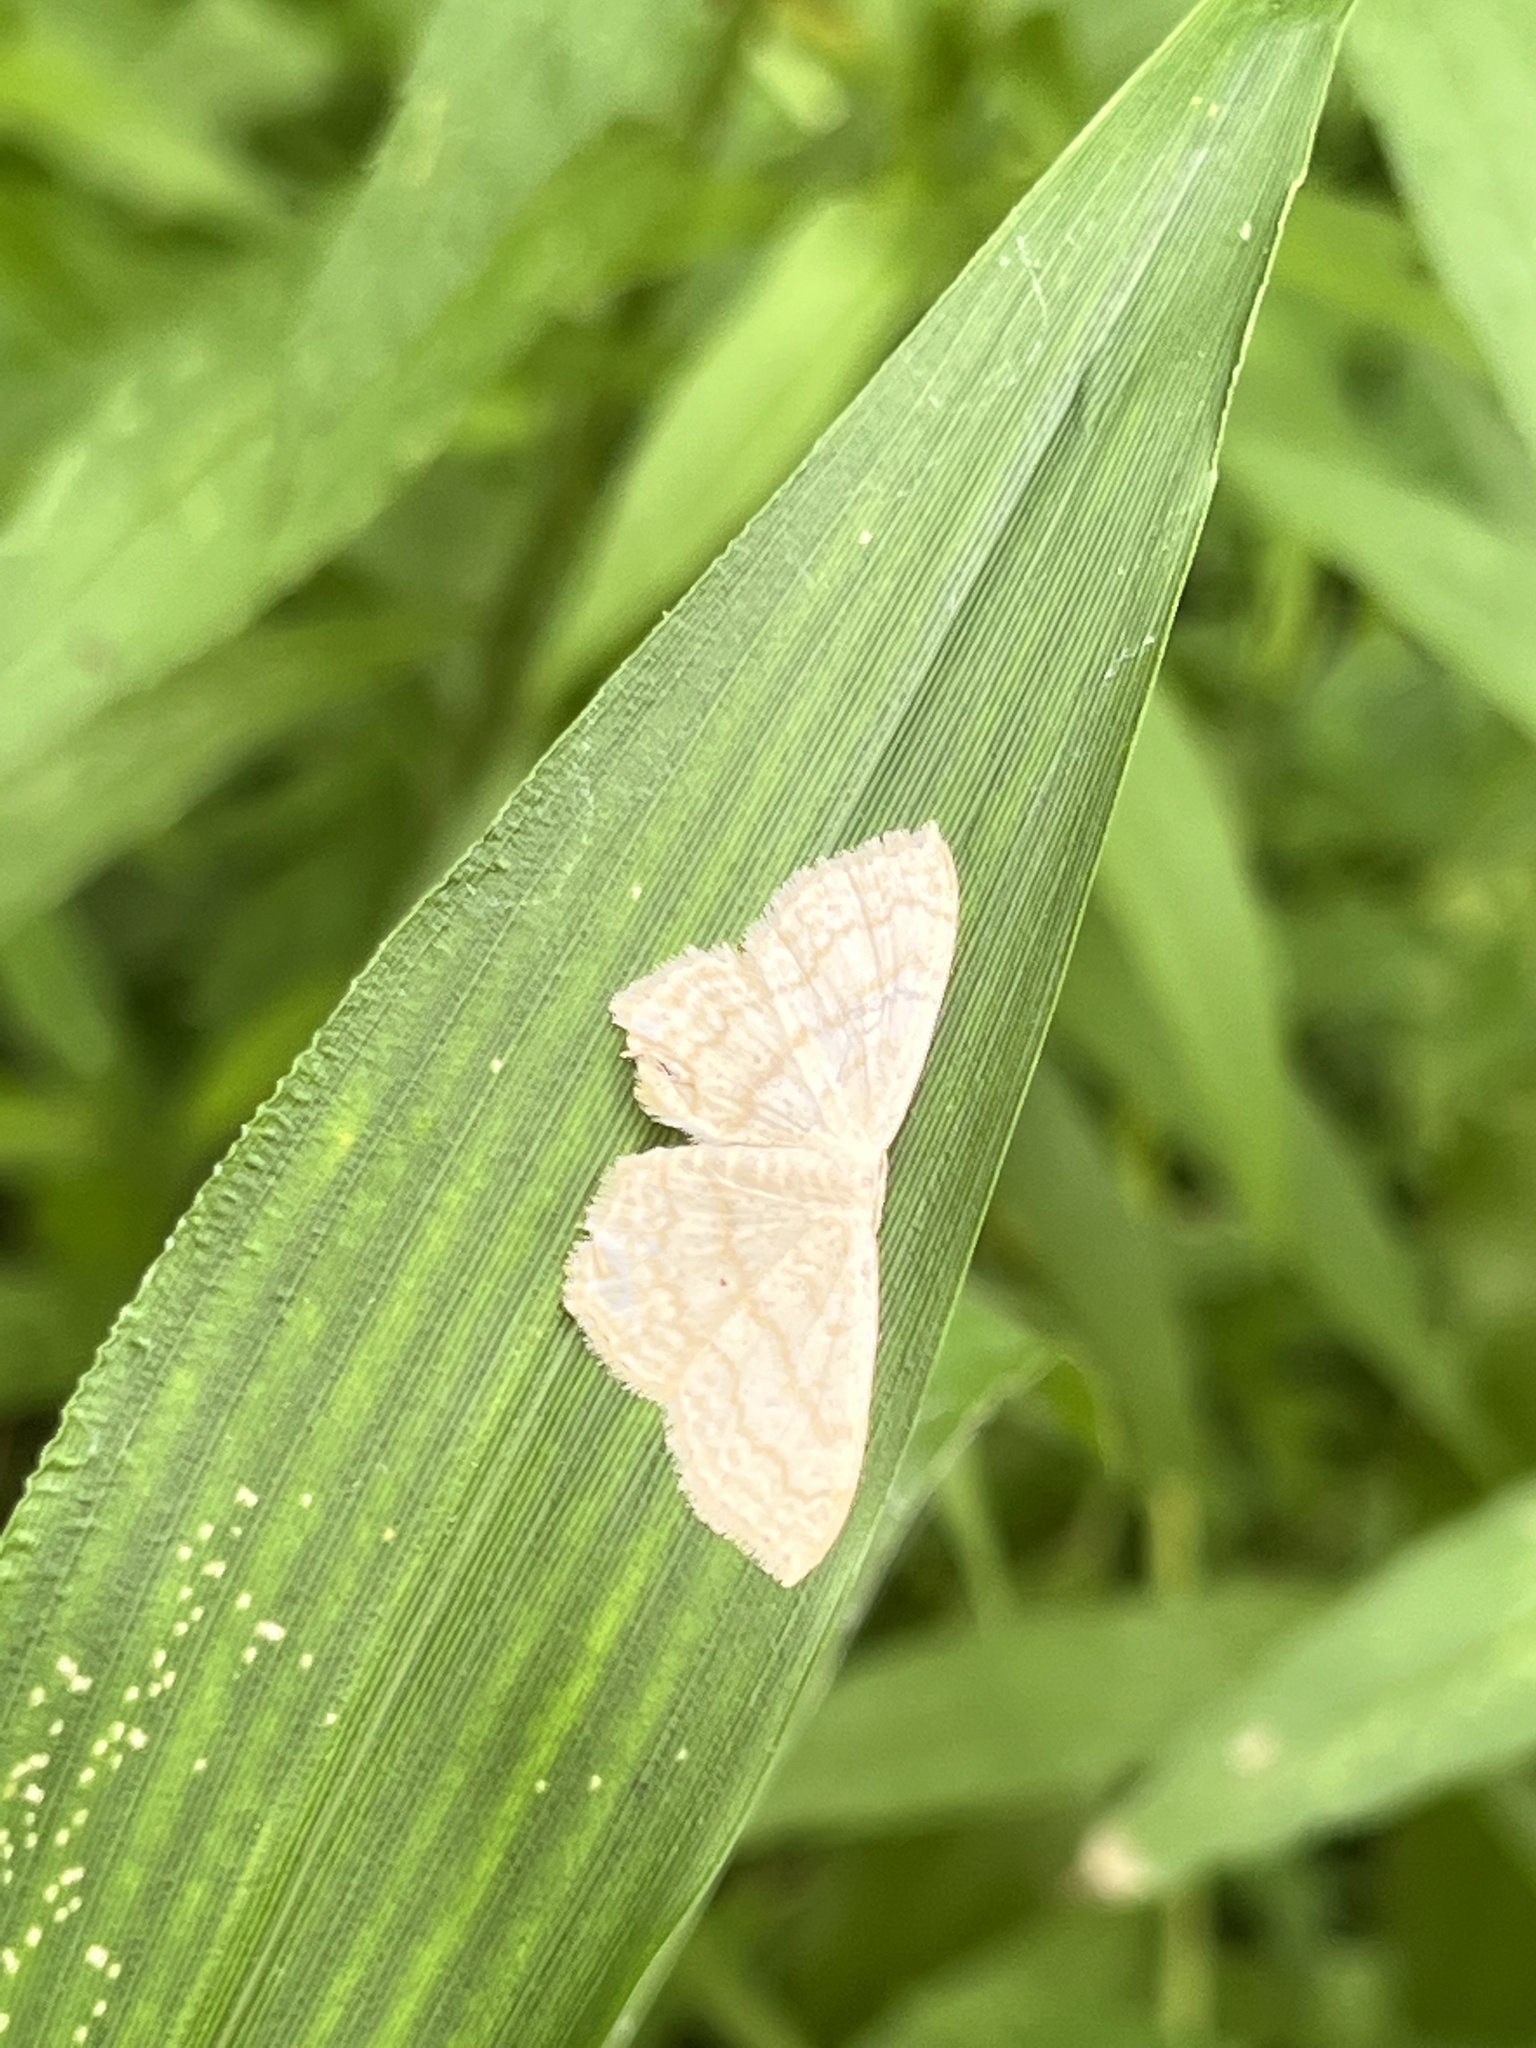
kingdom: Animalia
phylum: Arthropoda
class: Insecta
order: Lepidoptera
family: Geometridae
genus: Scopula
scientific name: Scopula limboundata
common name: Large lace border
